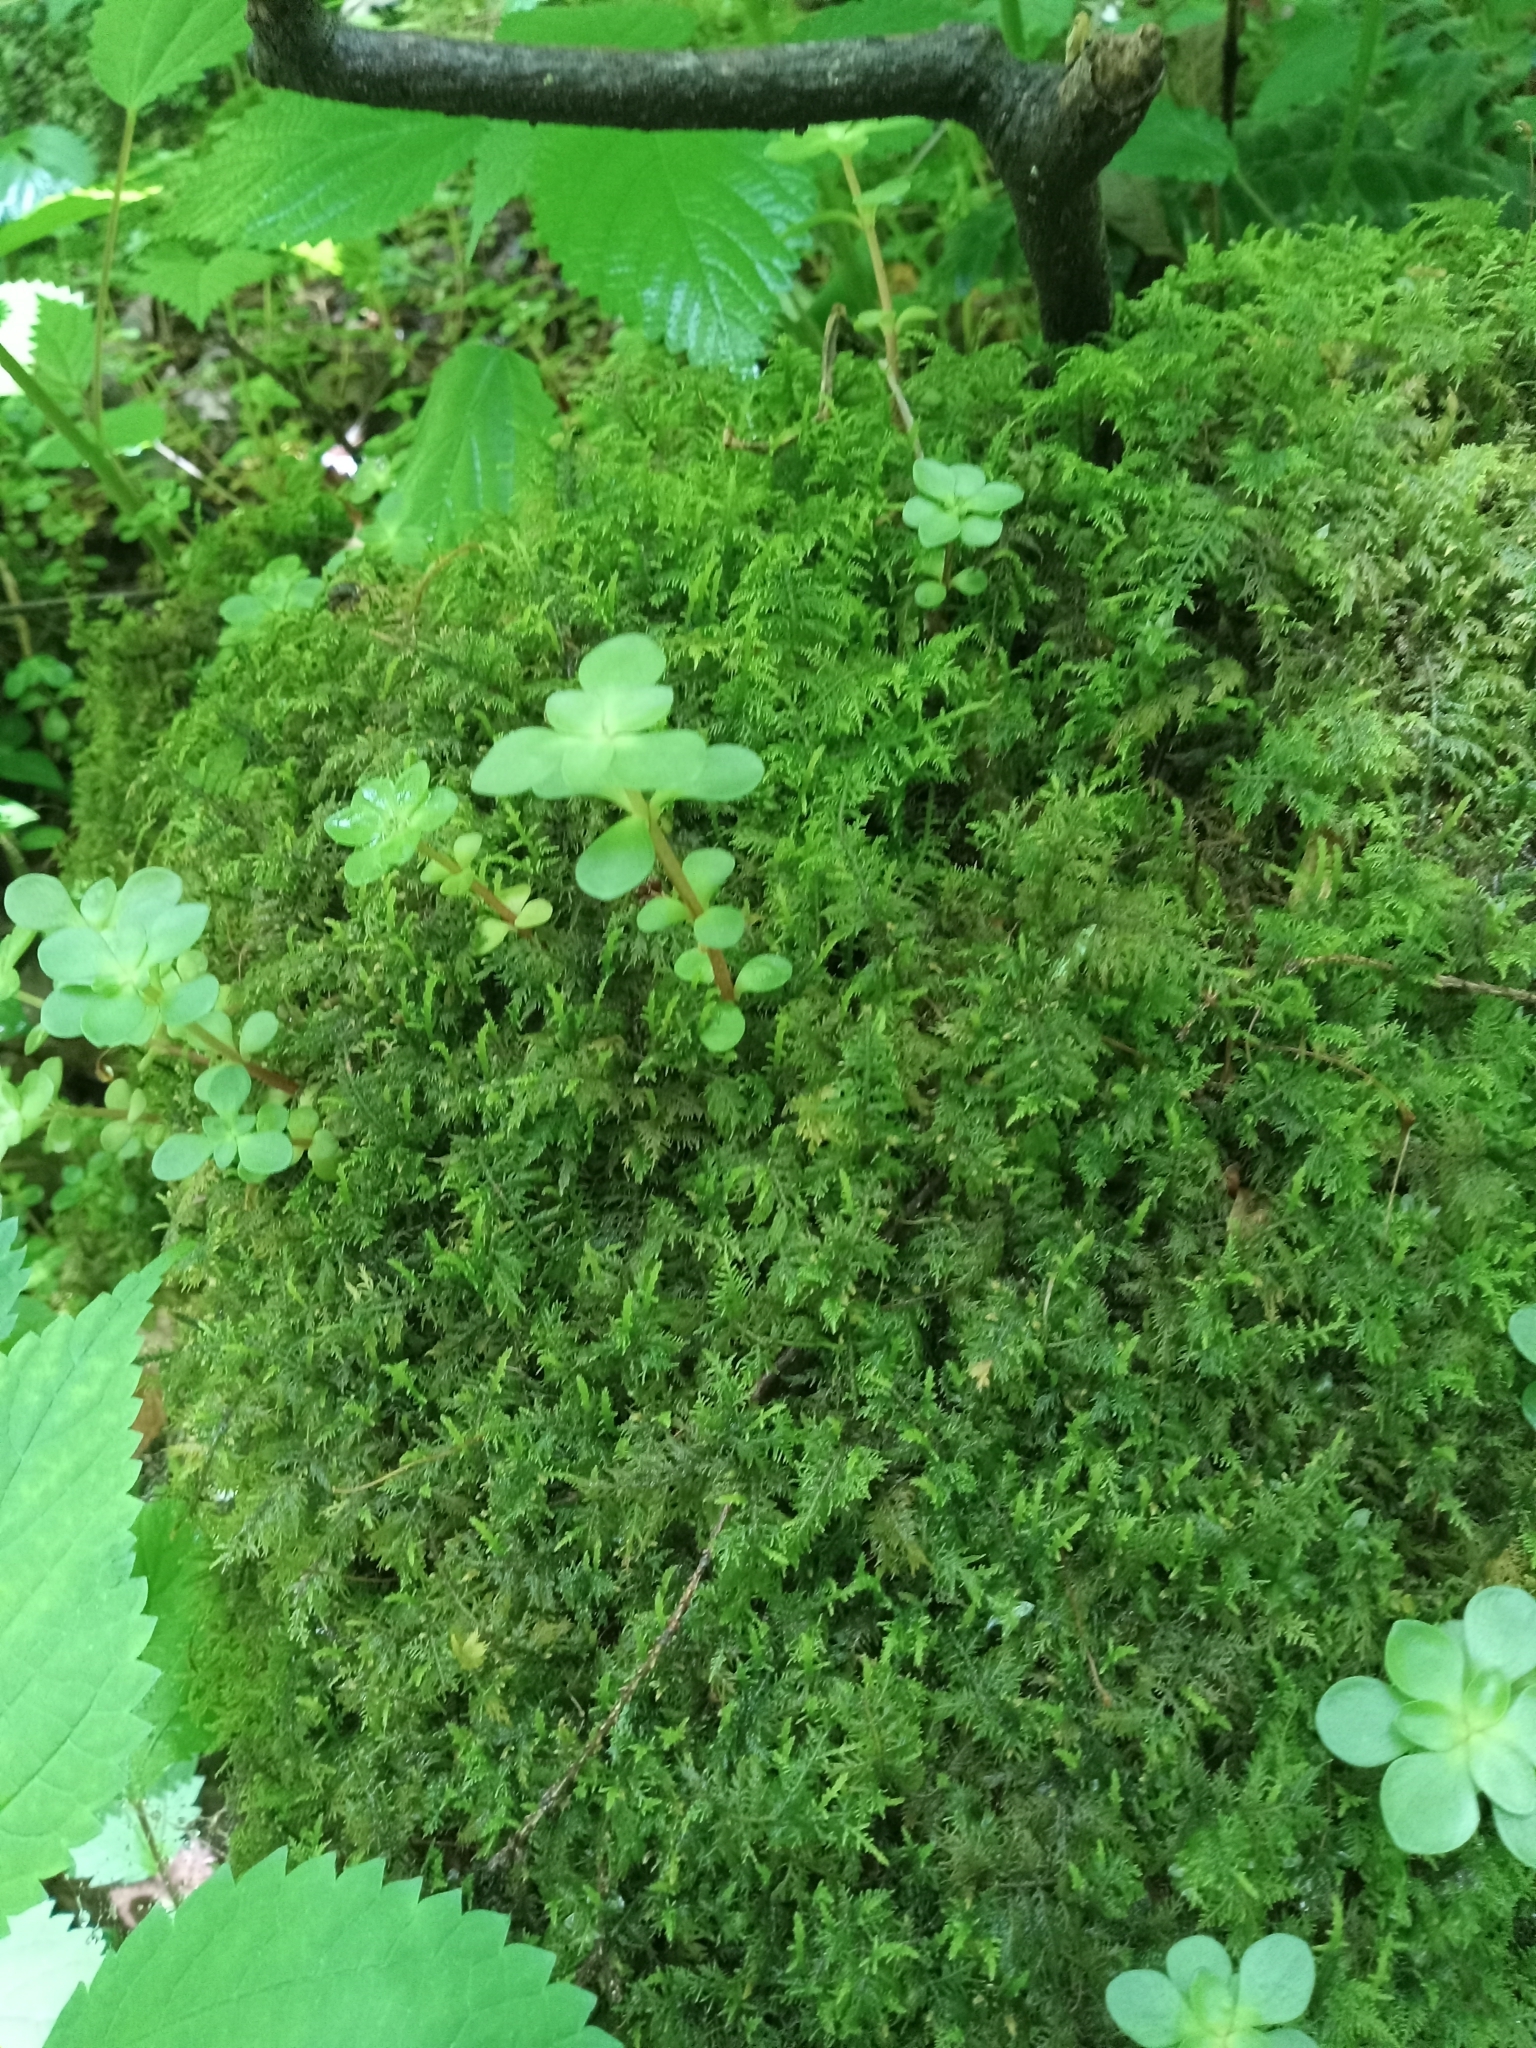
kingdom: Plantae
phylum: Tracheophyta
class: Magnoliopsida
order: Saxifragales
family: Crassulaceae
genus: Sedum
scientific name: Sedum ternatum
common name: Wild stonecrop
